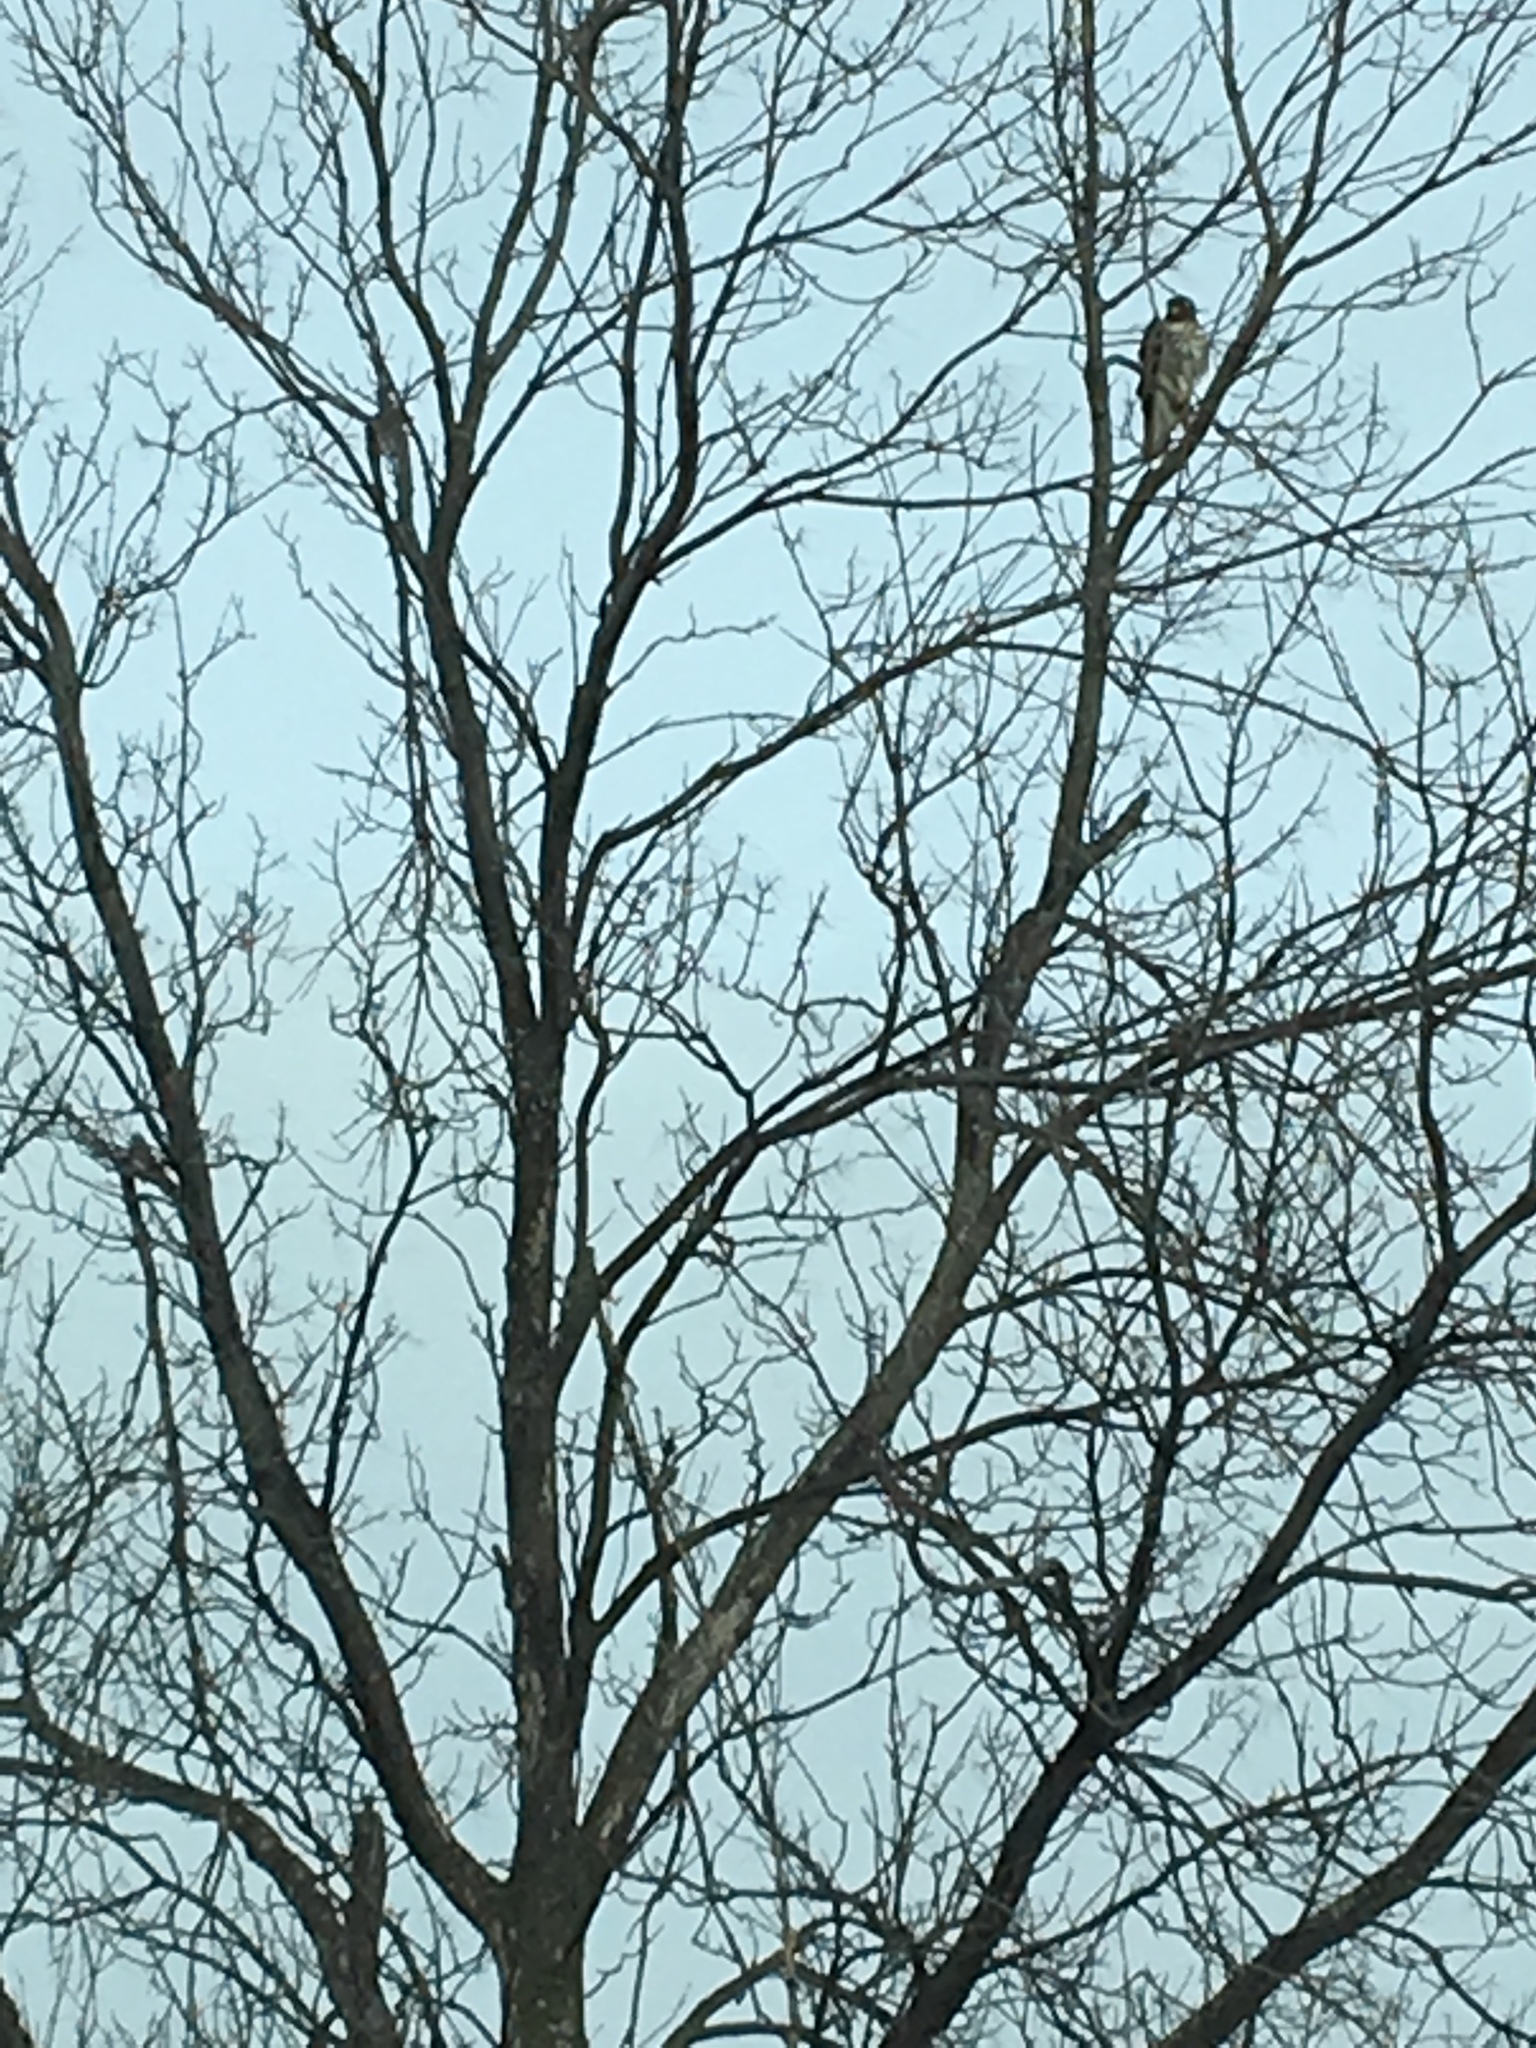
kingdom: Animalia
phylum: Chordata
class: Aves
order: Accipitriformes
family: Accipitridae
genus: Buteo
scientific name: Buteo jamaicensis
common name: Red-tailed hawk
